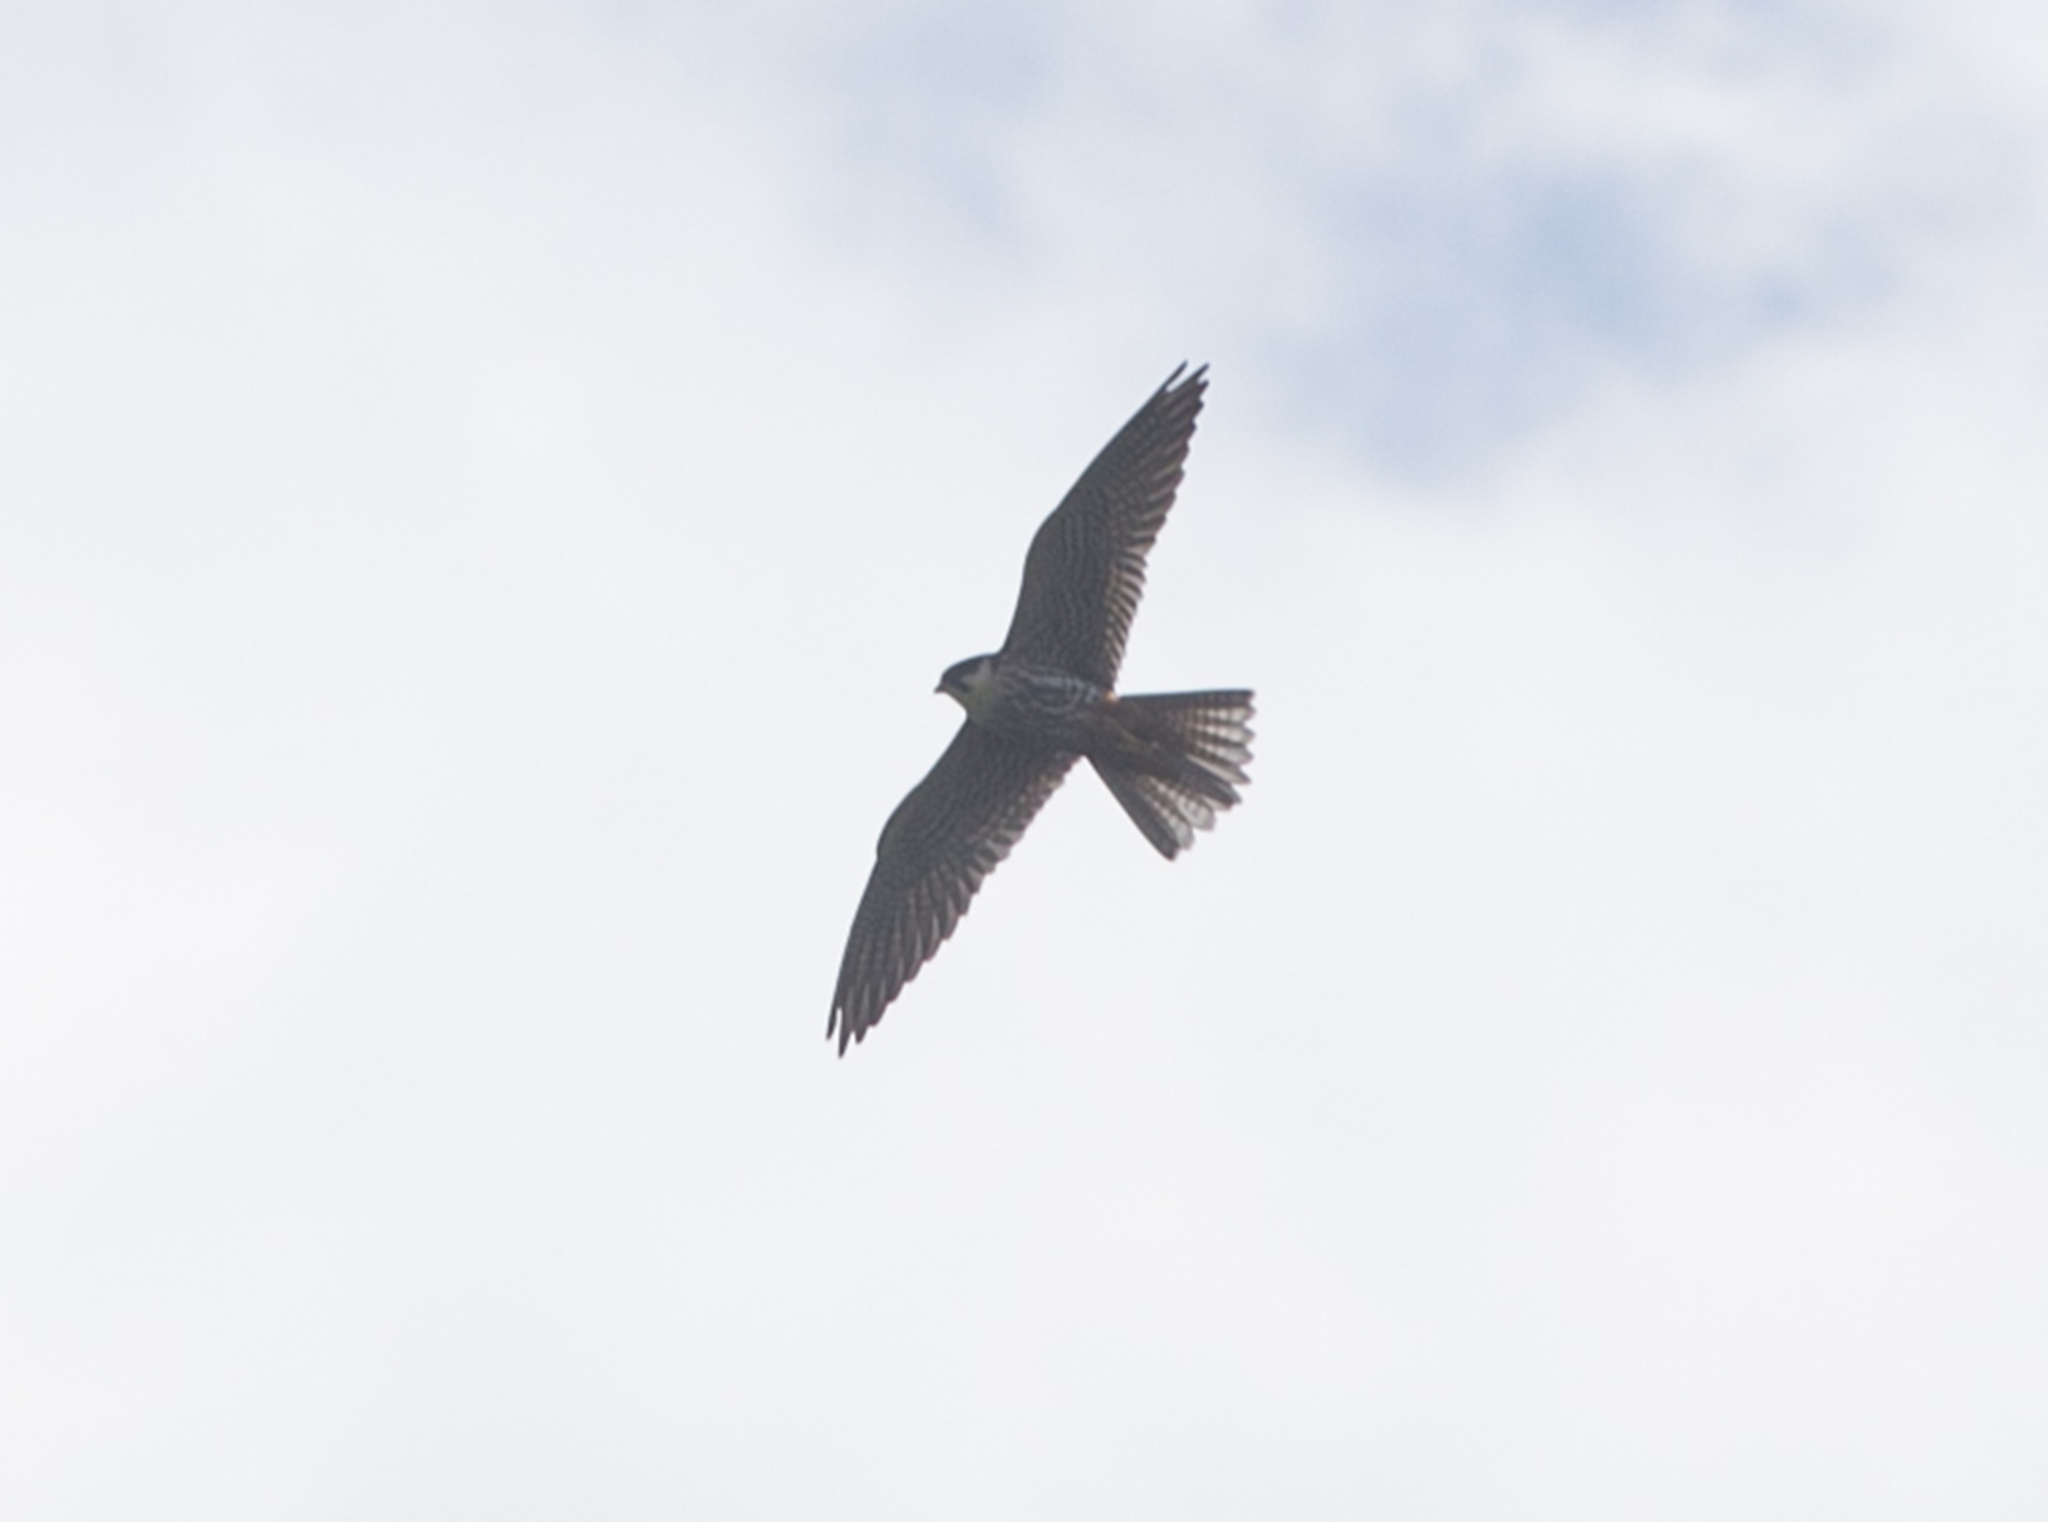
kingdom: Animalia
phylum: Chordata
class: Aves
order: Falconiformes
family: Falconidae
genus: Falco
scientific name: Falco subbuteo
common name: Eurasian hobby
